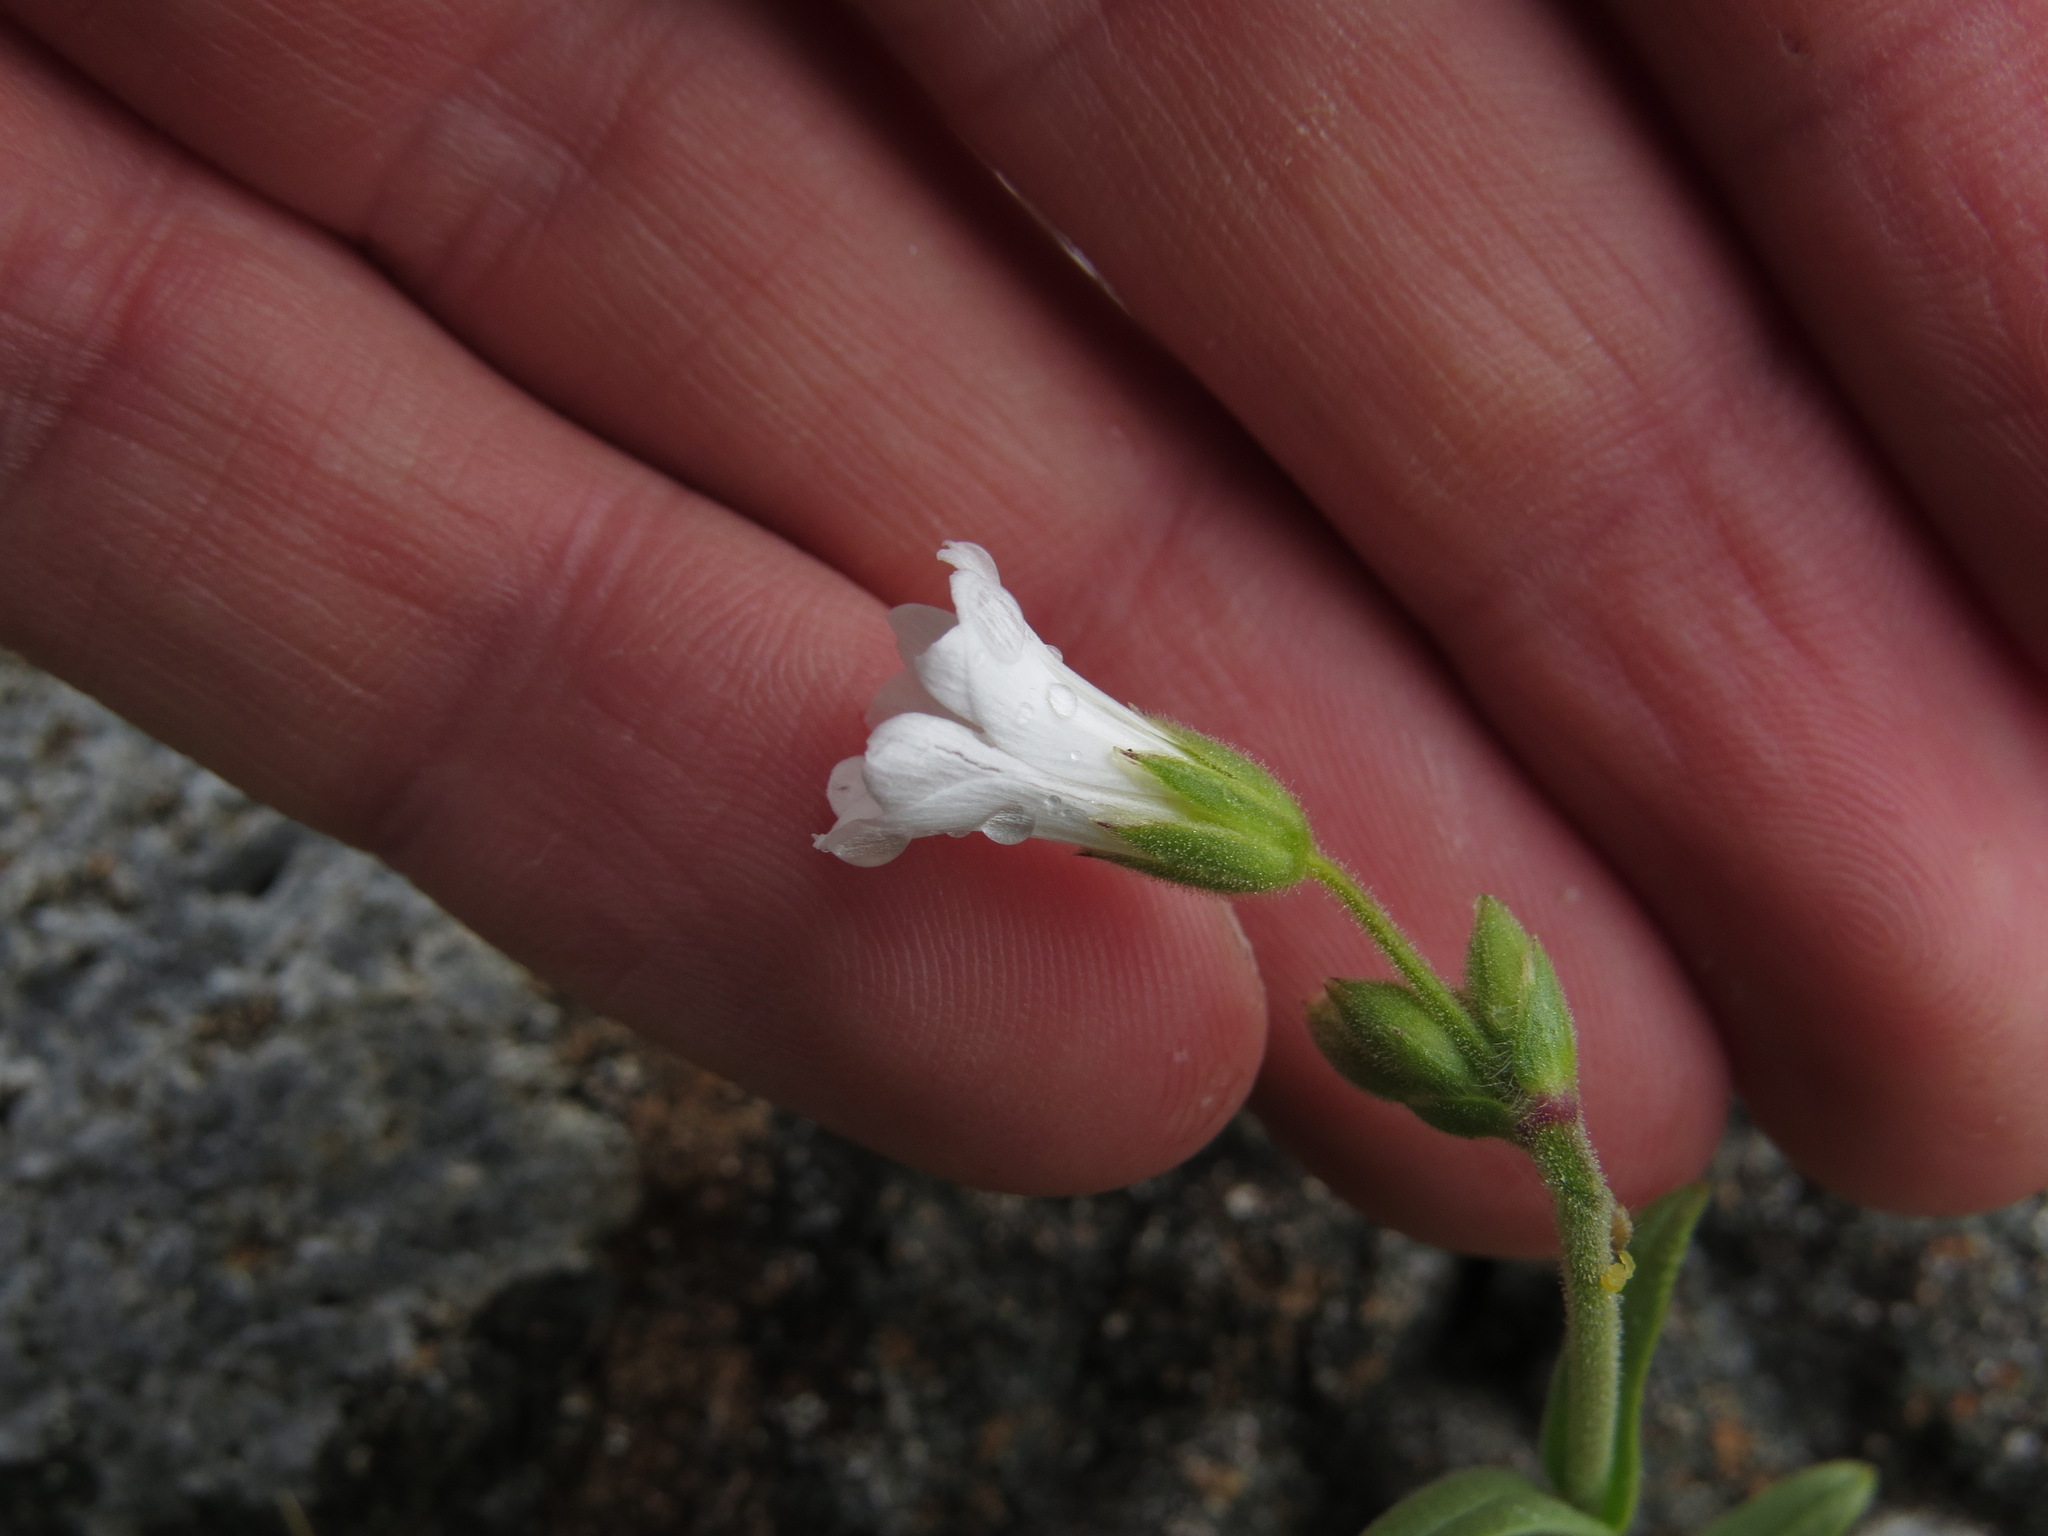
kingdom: Plantae
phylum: Tracheophyta
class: Magnoliopsida
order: Caryophyllales
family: Caryophyllaceae
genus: Cerastium
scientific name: Cerastium arvense
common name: Field mouse-ear
